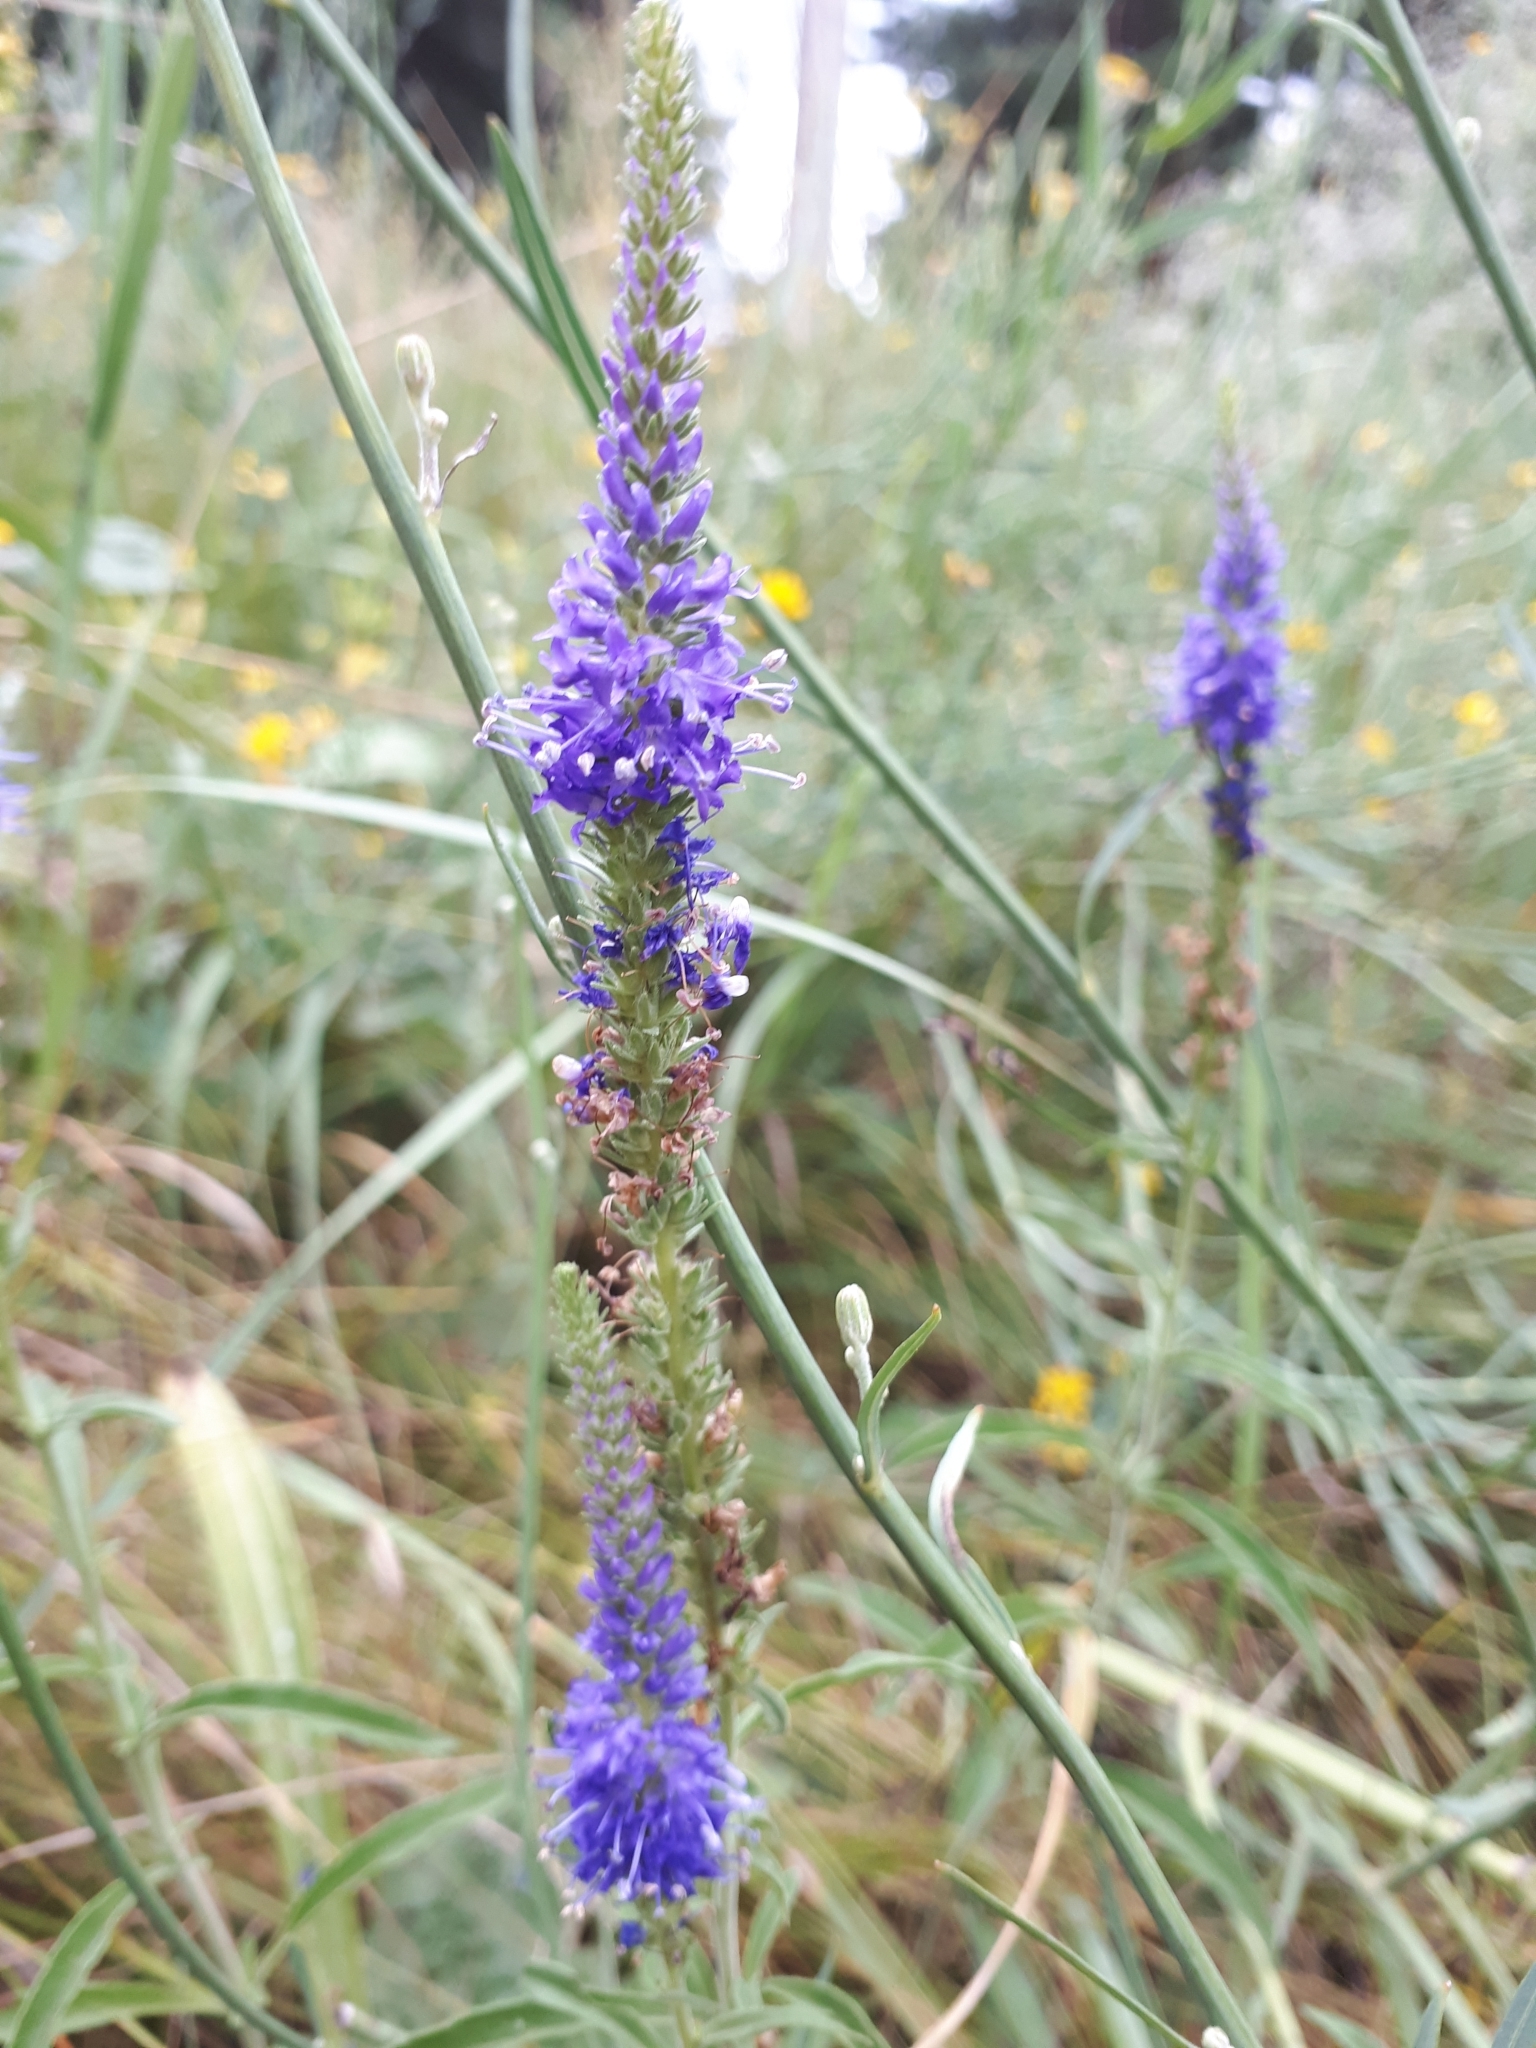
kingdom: Plantae
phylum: Tracheophyta
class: Magnoliopsida
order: Lamiales
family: Plantaginaceae
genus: Veronica
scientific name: Veronica spicata
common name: Spiked speedwell
